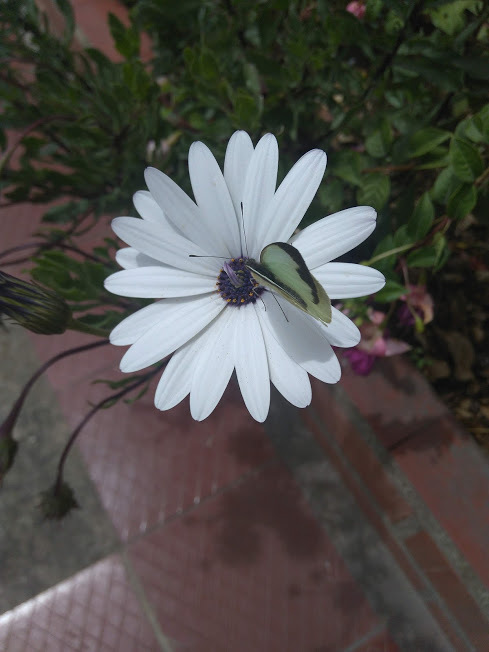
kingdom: Animalia
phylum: Arthropoda
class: Insecta
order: Lepidoptera
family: Pieridae
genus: Leptophobia
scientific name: Leptophobia aripa
